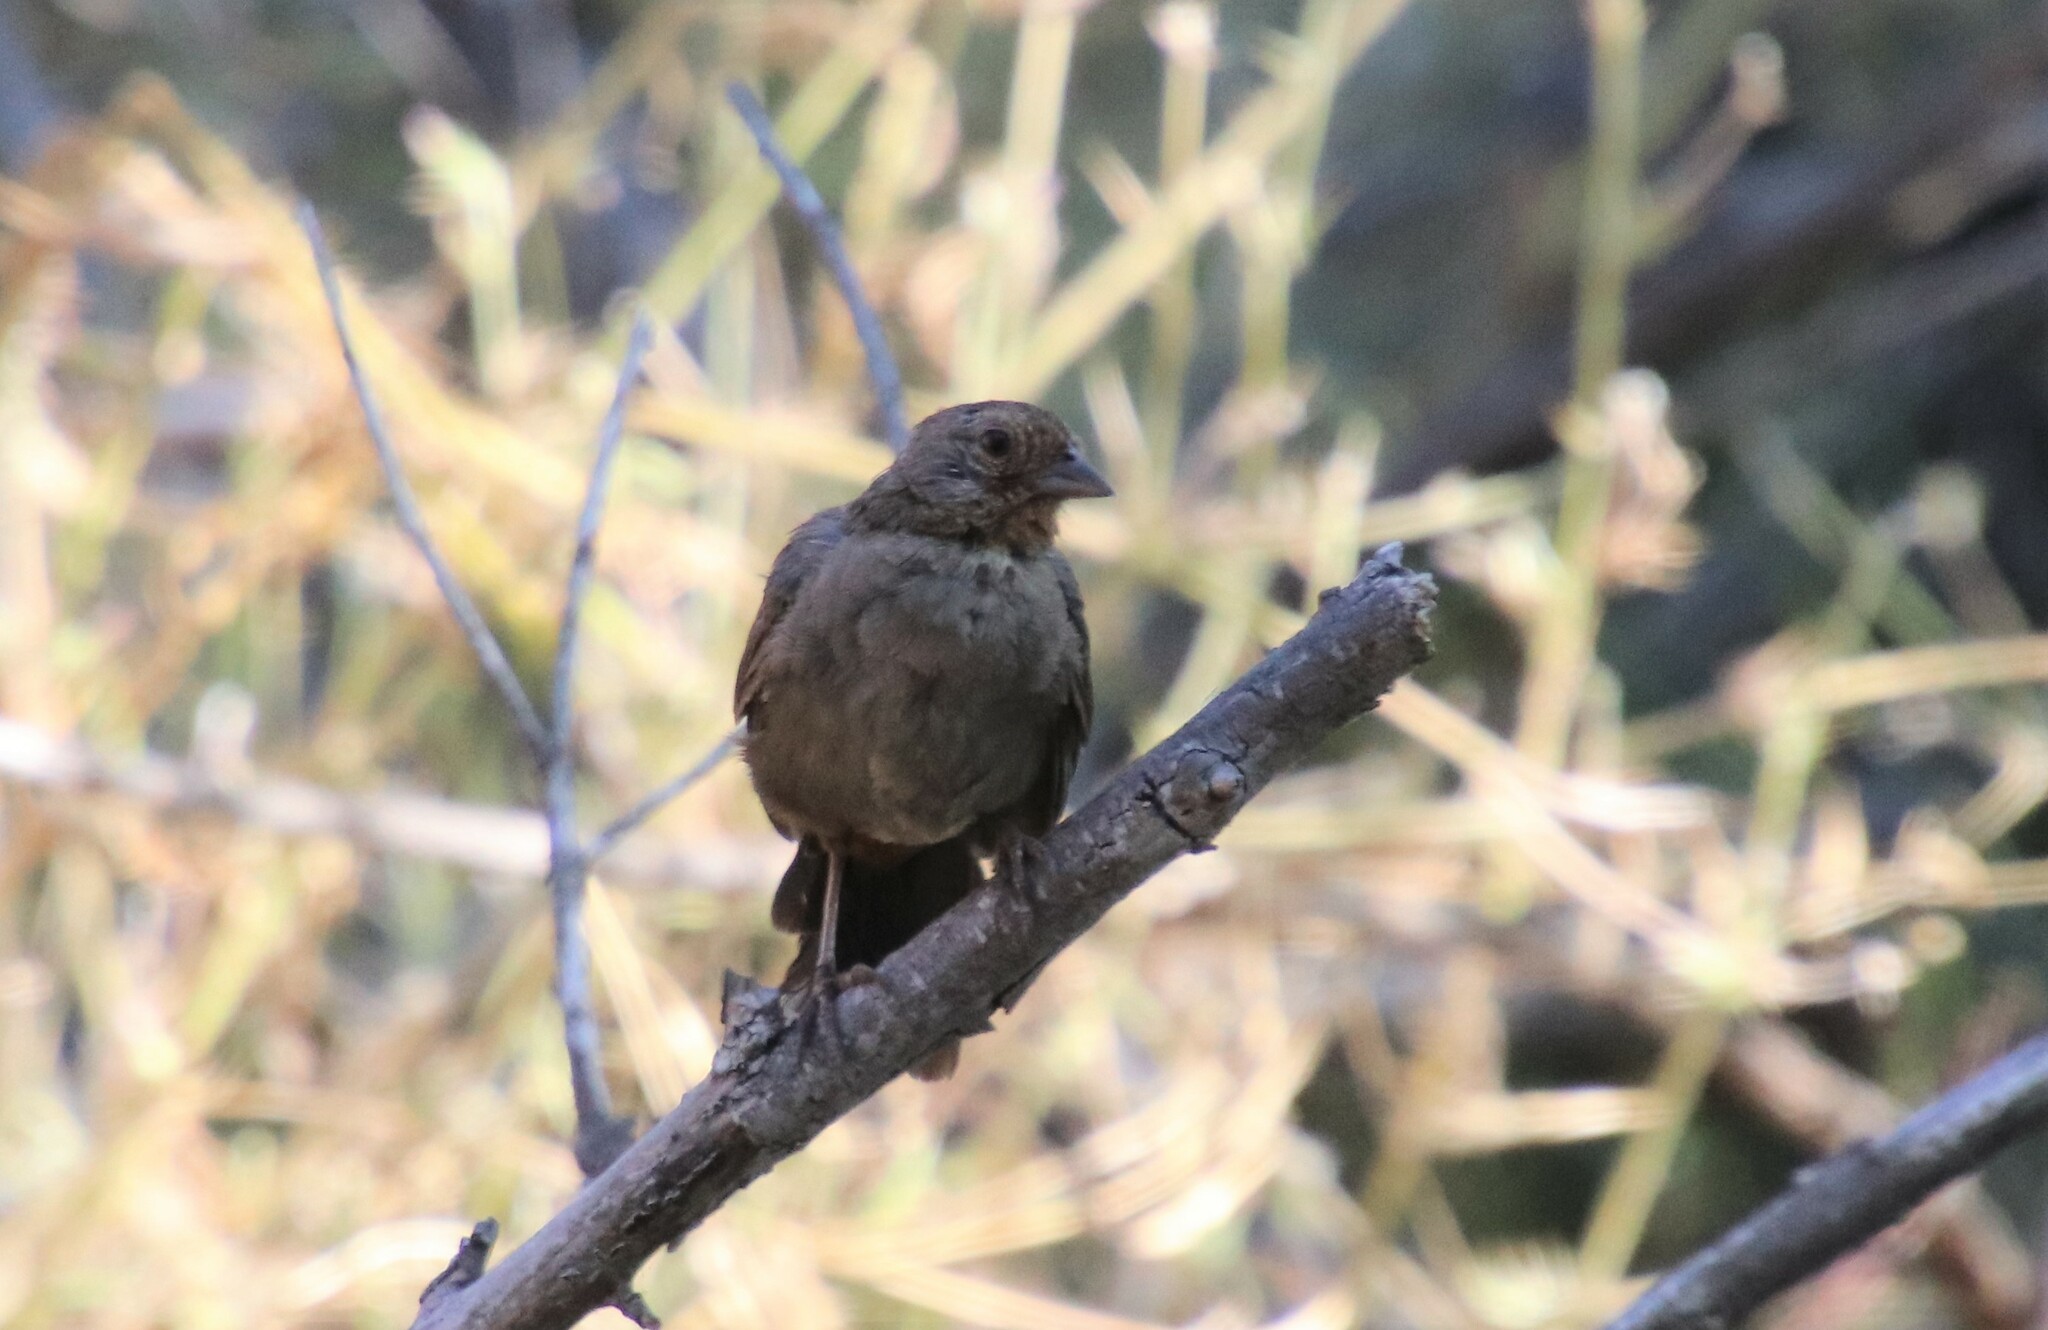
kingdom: Animalia
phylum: Chordata
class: Aves
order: Passeriformes
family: Passerellidae
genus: Melozone
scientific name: Melozone crissalis
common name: California towhee
